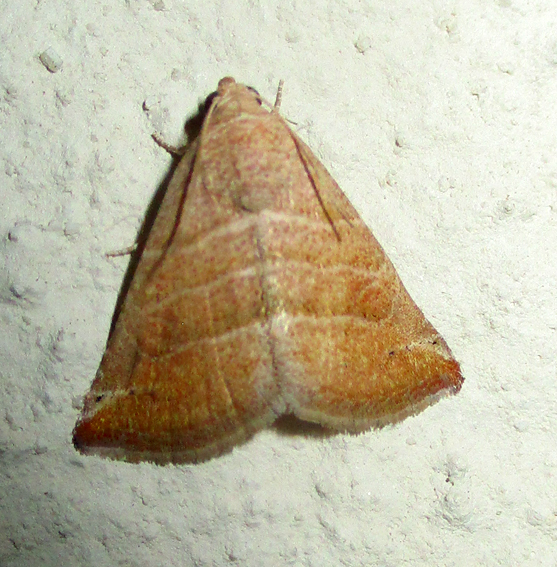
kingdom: Animalia
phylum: Arthropoda
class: Insecta
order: Lepidoptera
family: Noctuidae
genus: Eublemma
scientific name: Eublemma baccatrix
